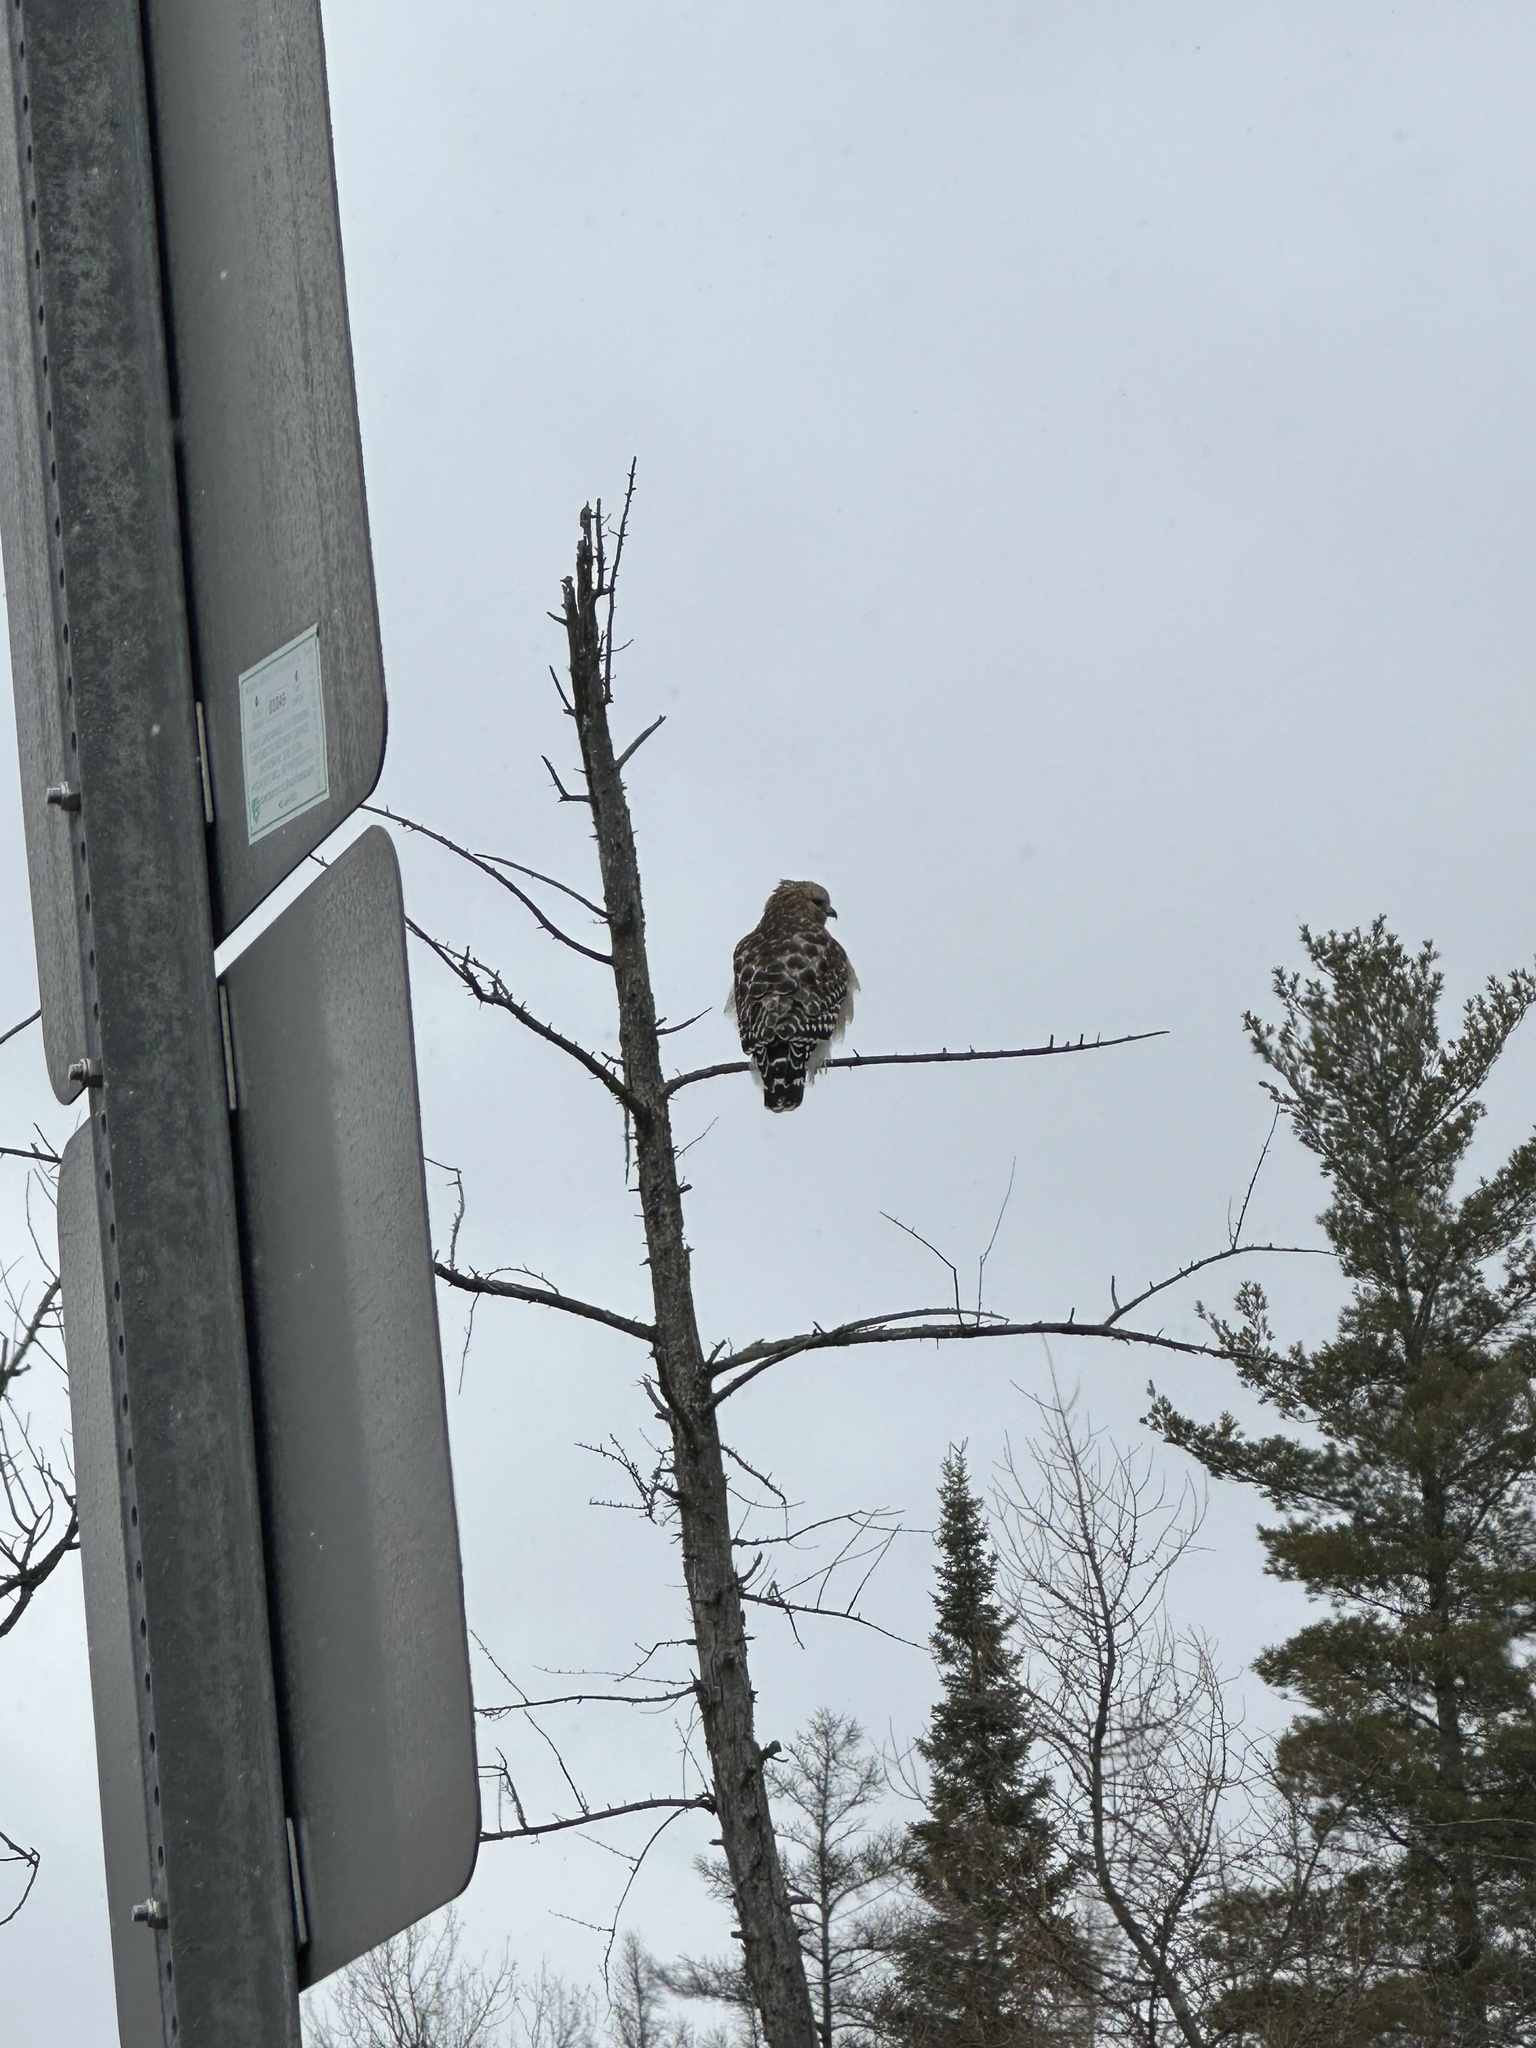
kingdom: Animalia
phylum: Chordata
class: Aves
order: Accipitriformes
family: Accipitridae
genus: Buteo
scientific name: Buteo lineatus
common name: Red-shouldered hawk
